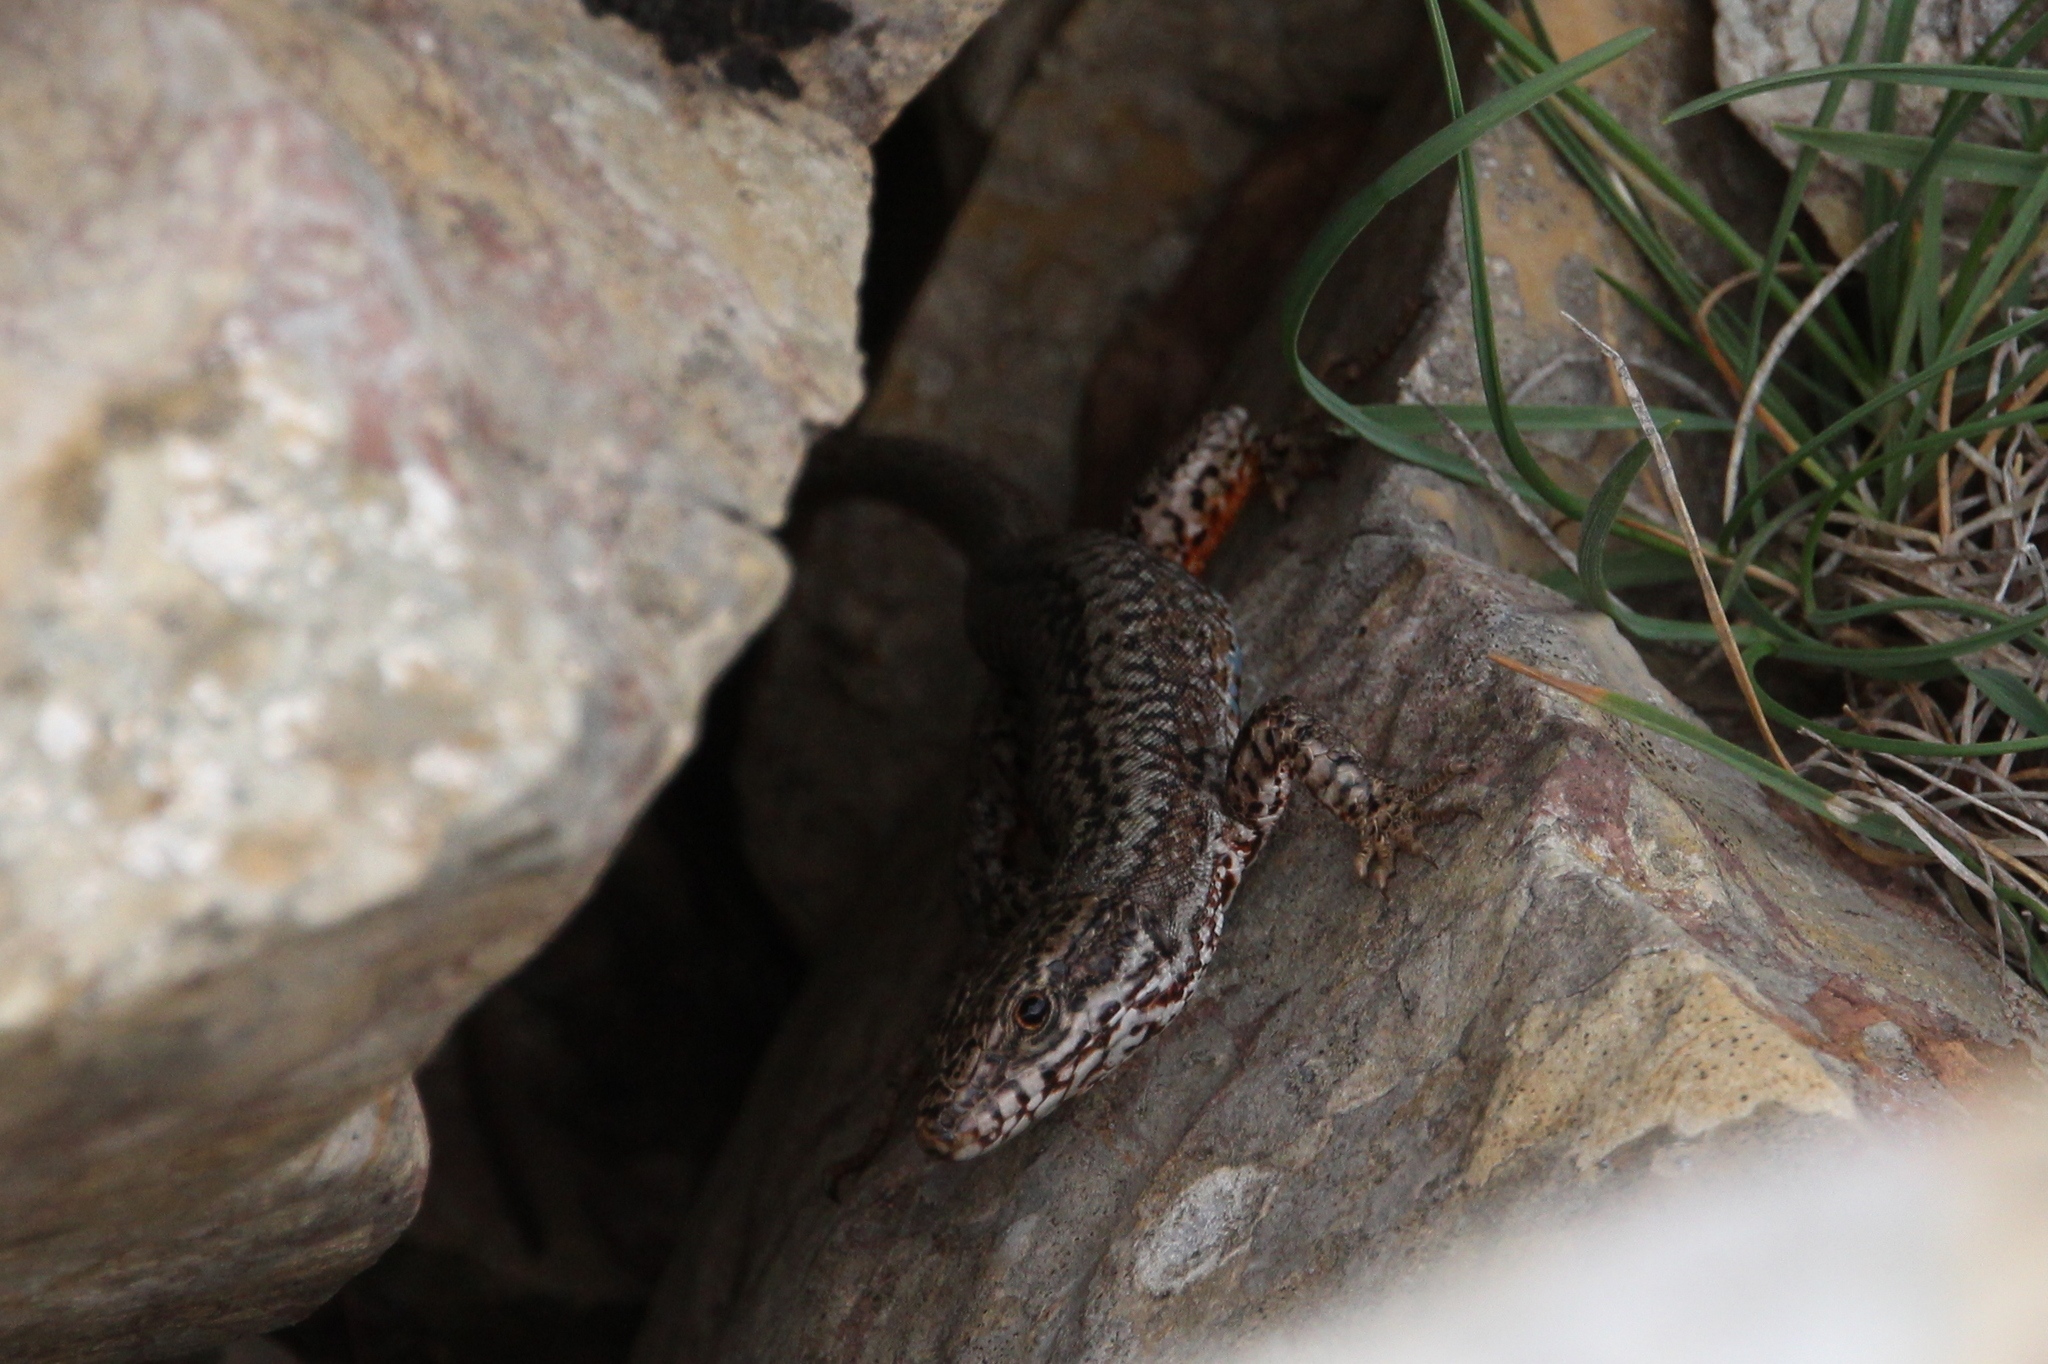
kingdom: Animalia
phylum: Chordata
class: Squamata
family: Lacertidae
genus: Podarcis
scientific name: Podarcis muralis
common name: Common wall lizard
